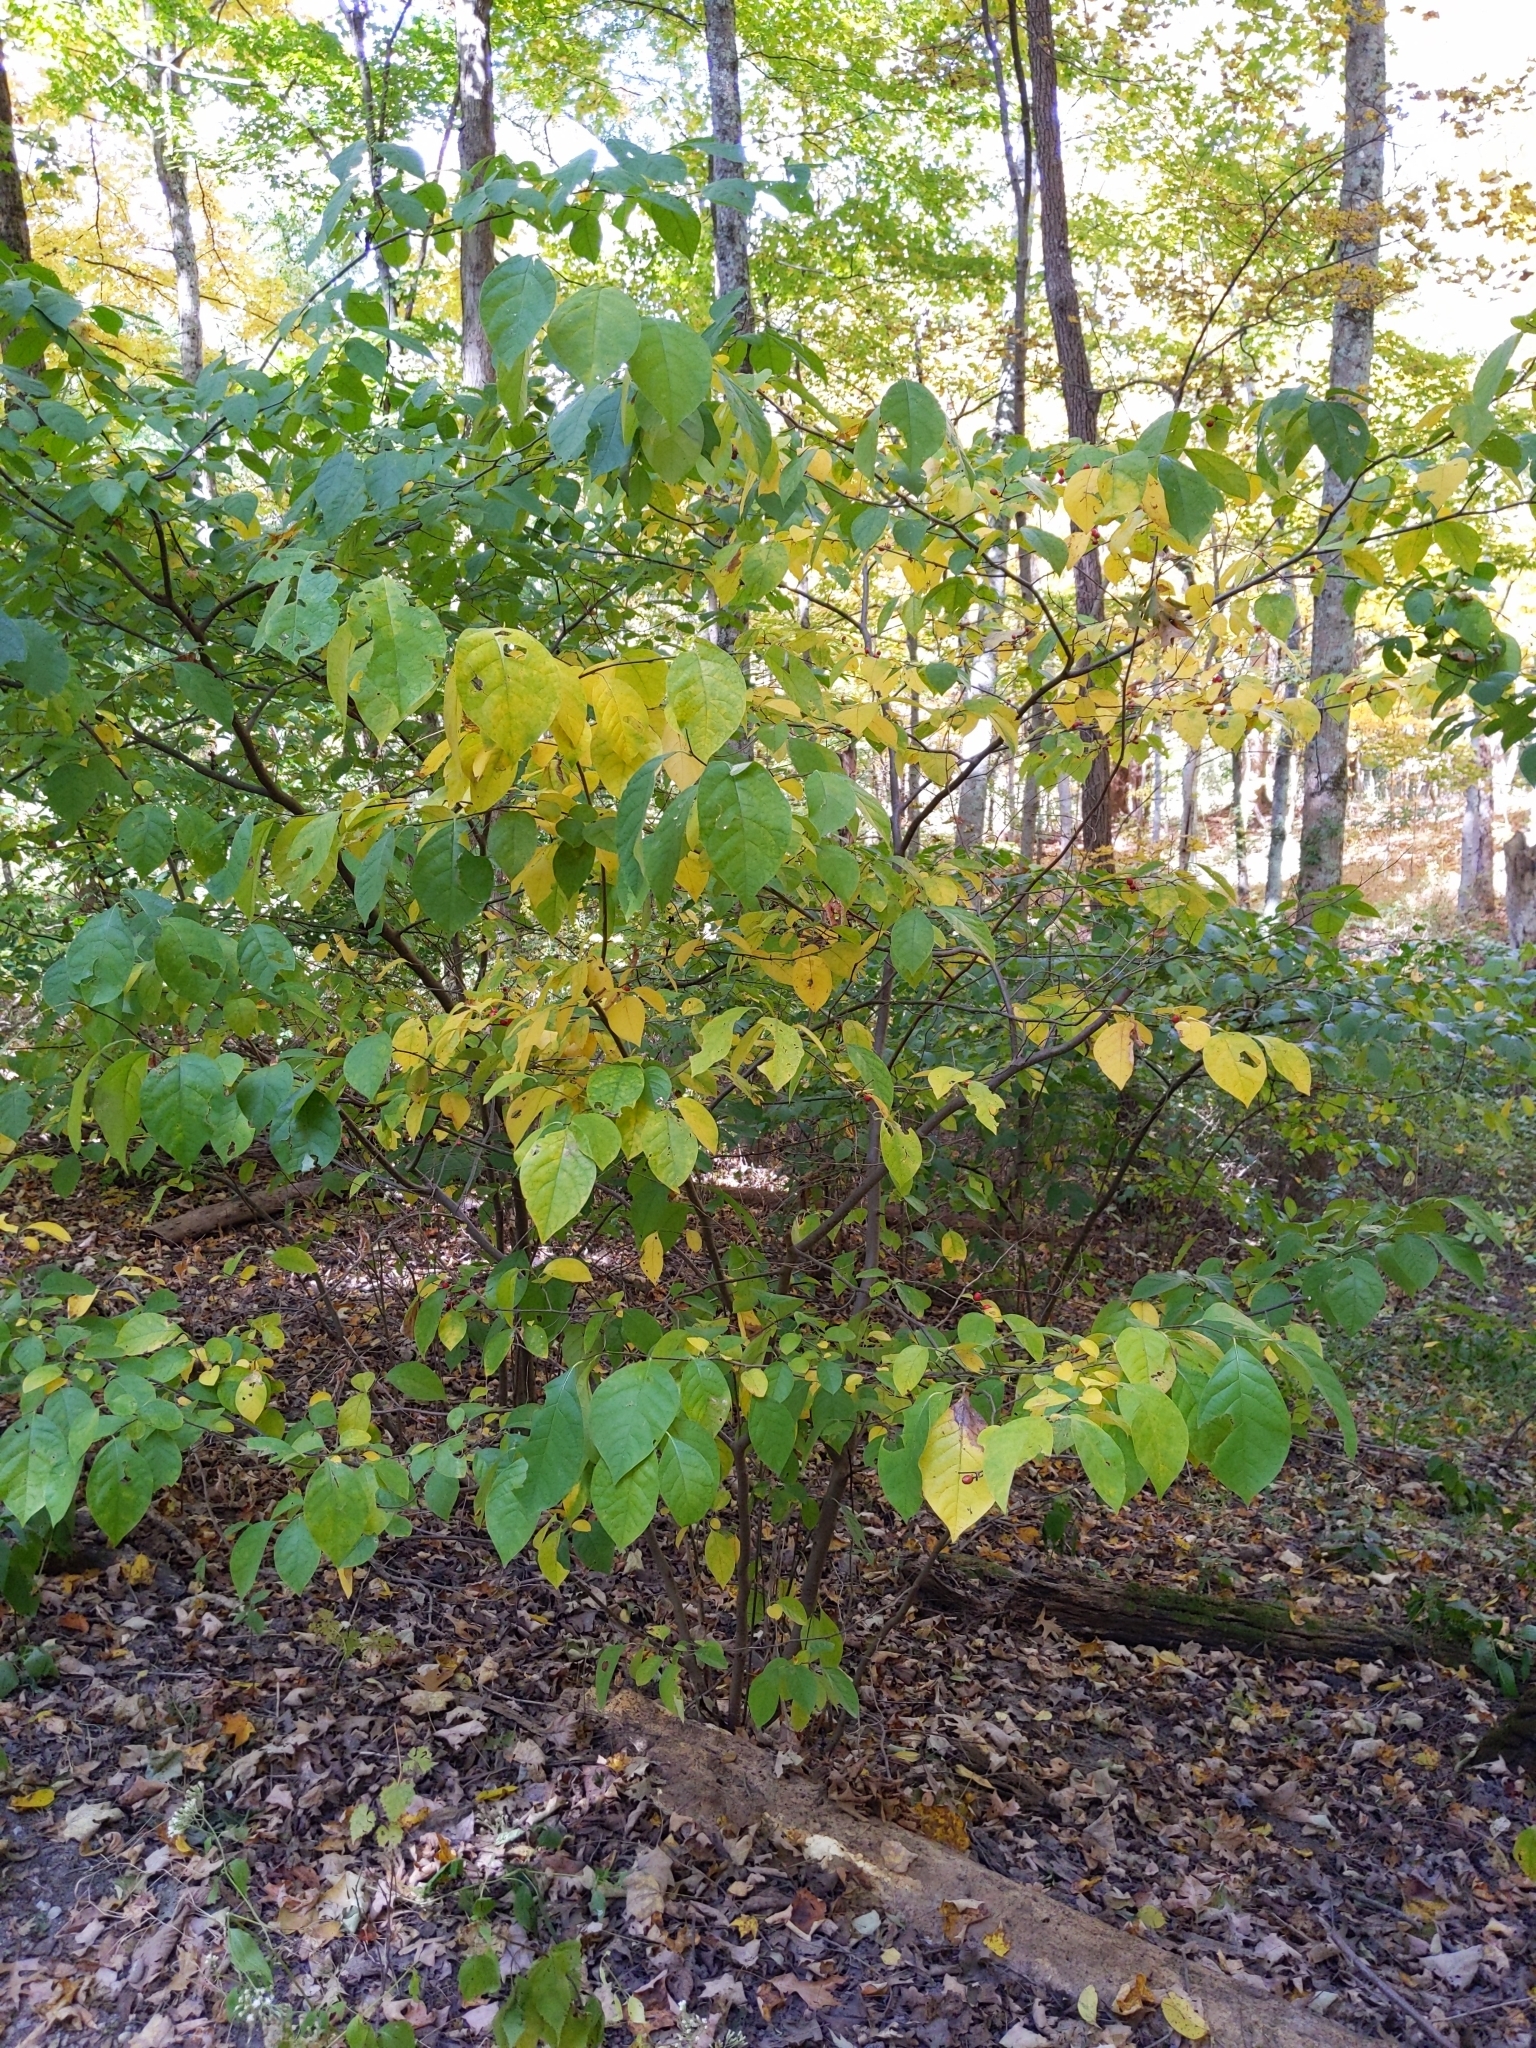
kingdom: Plantae
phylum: Tracheophyta
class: Magnoliopsida
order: Laurales
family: Lauraceae
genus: Lindera
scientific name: Lindera benzoin
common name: Spicebush
